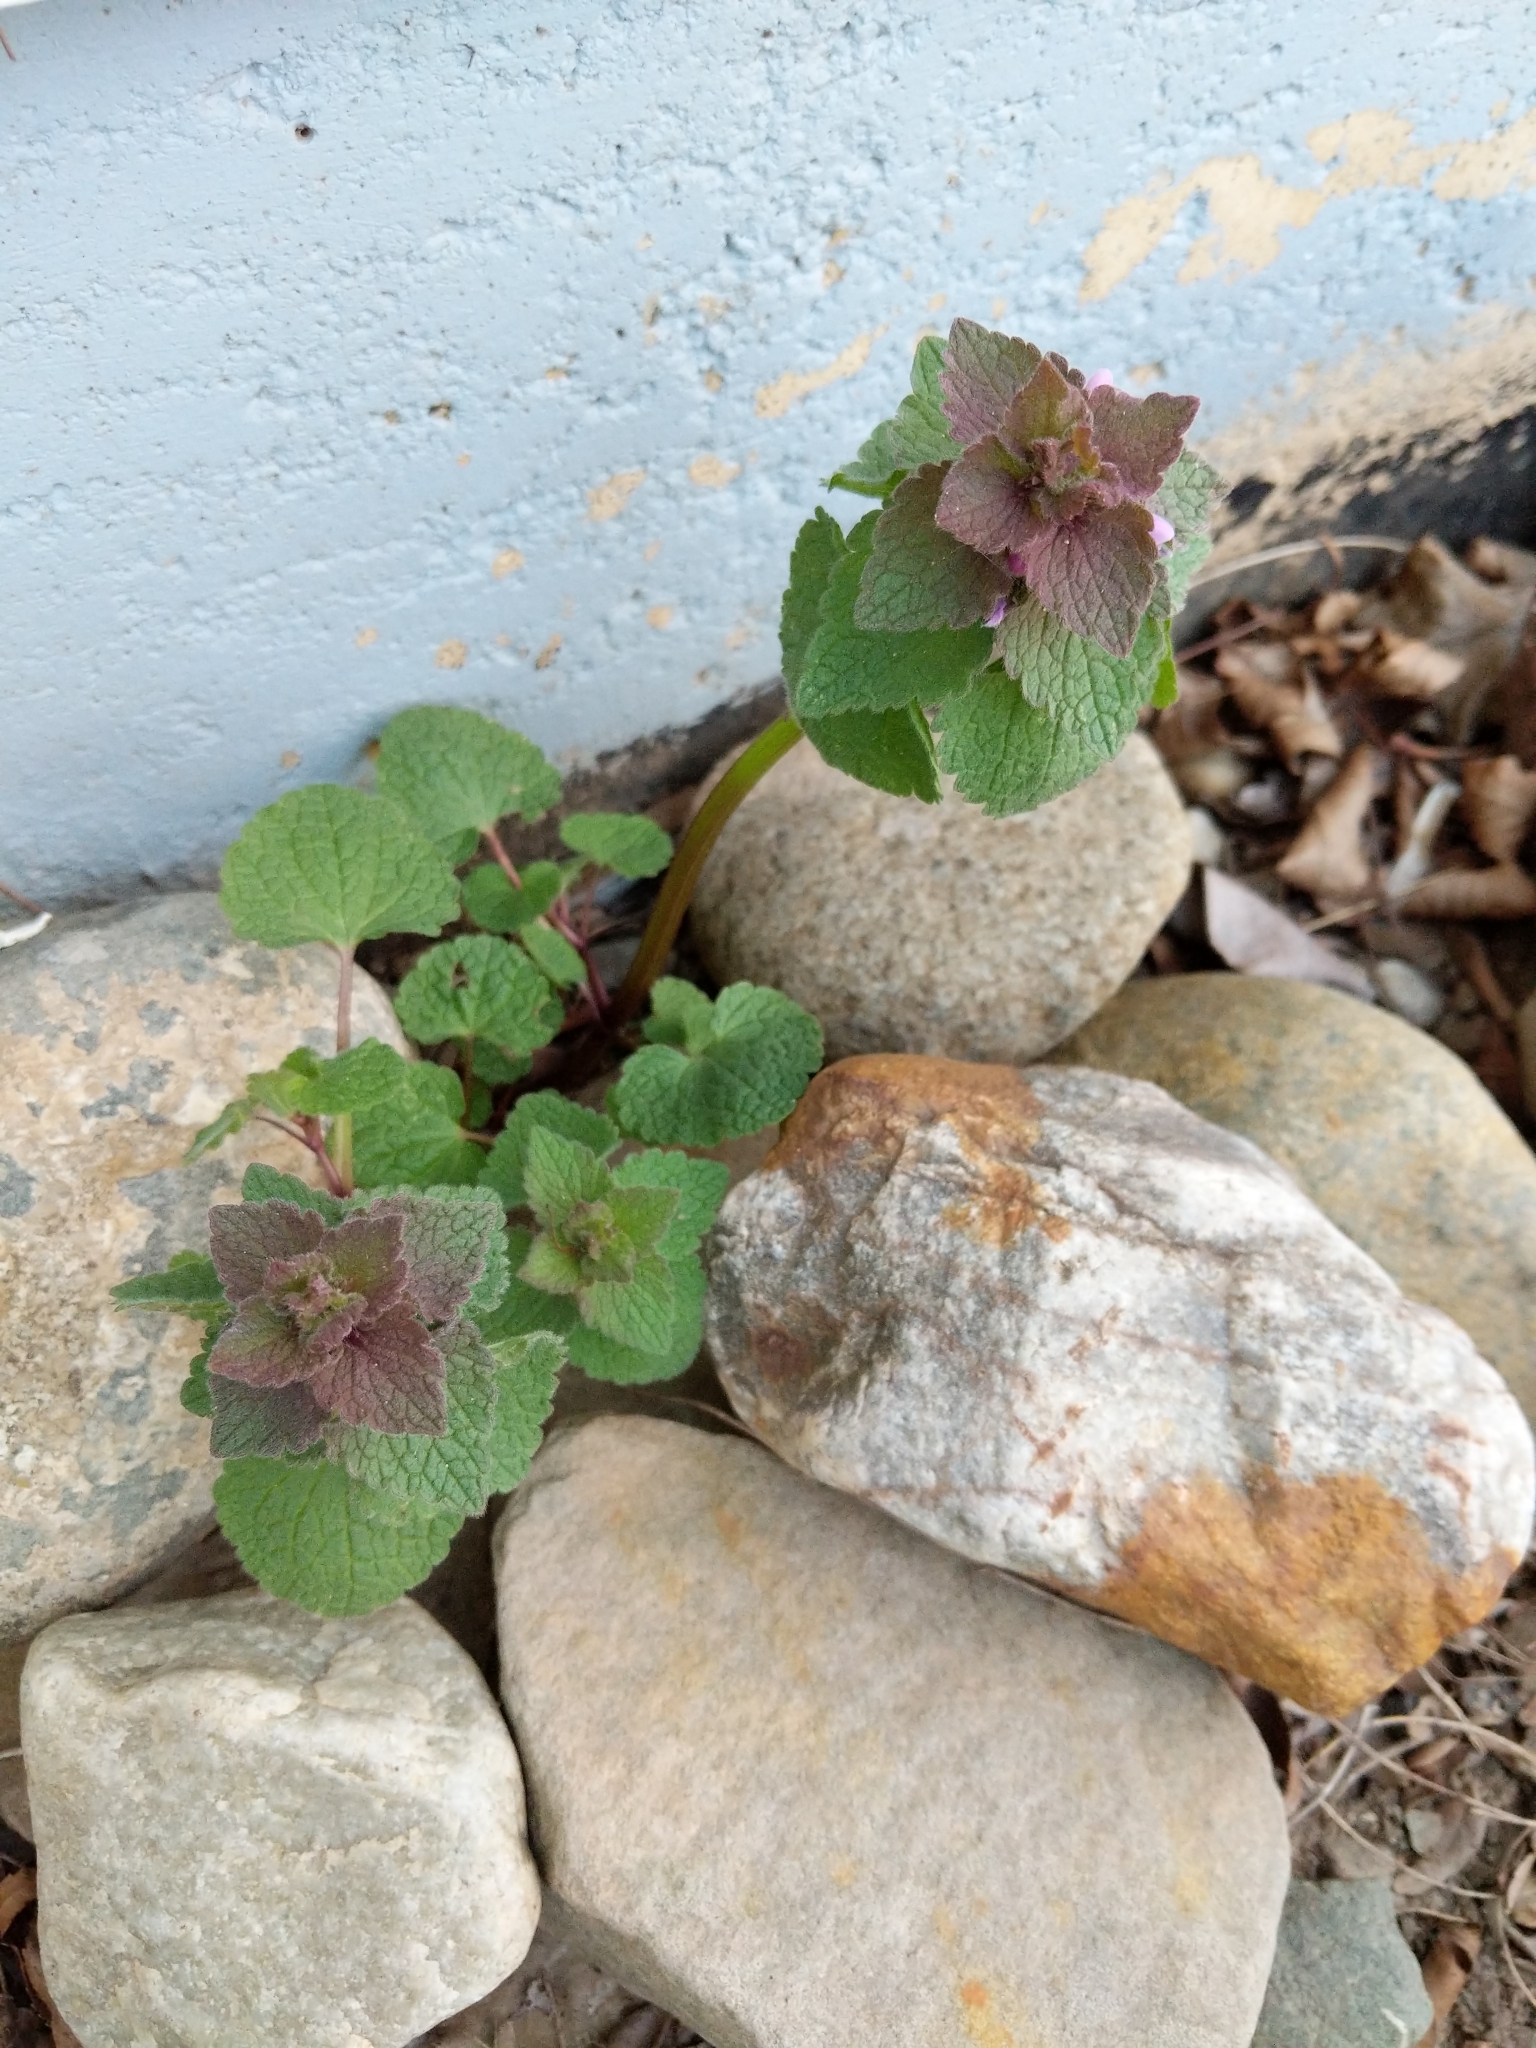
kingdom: Plantae
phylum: Tracheophyta
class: Magnoliopsida
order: Lamiales
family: Lamiaceae
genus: Lamium
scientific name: Lamium purpureum
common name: Red dead-nettle
